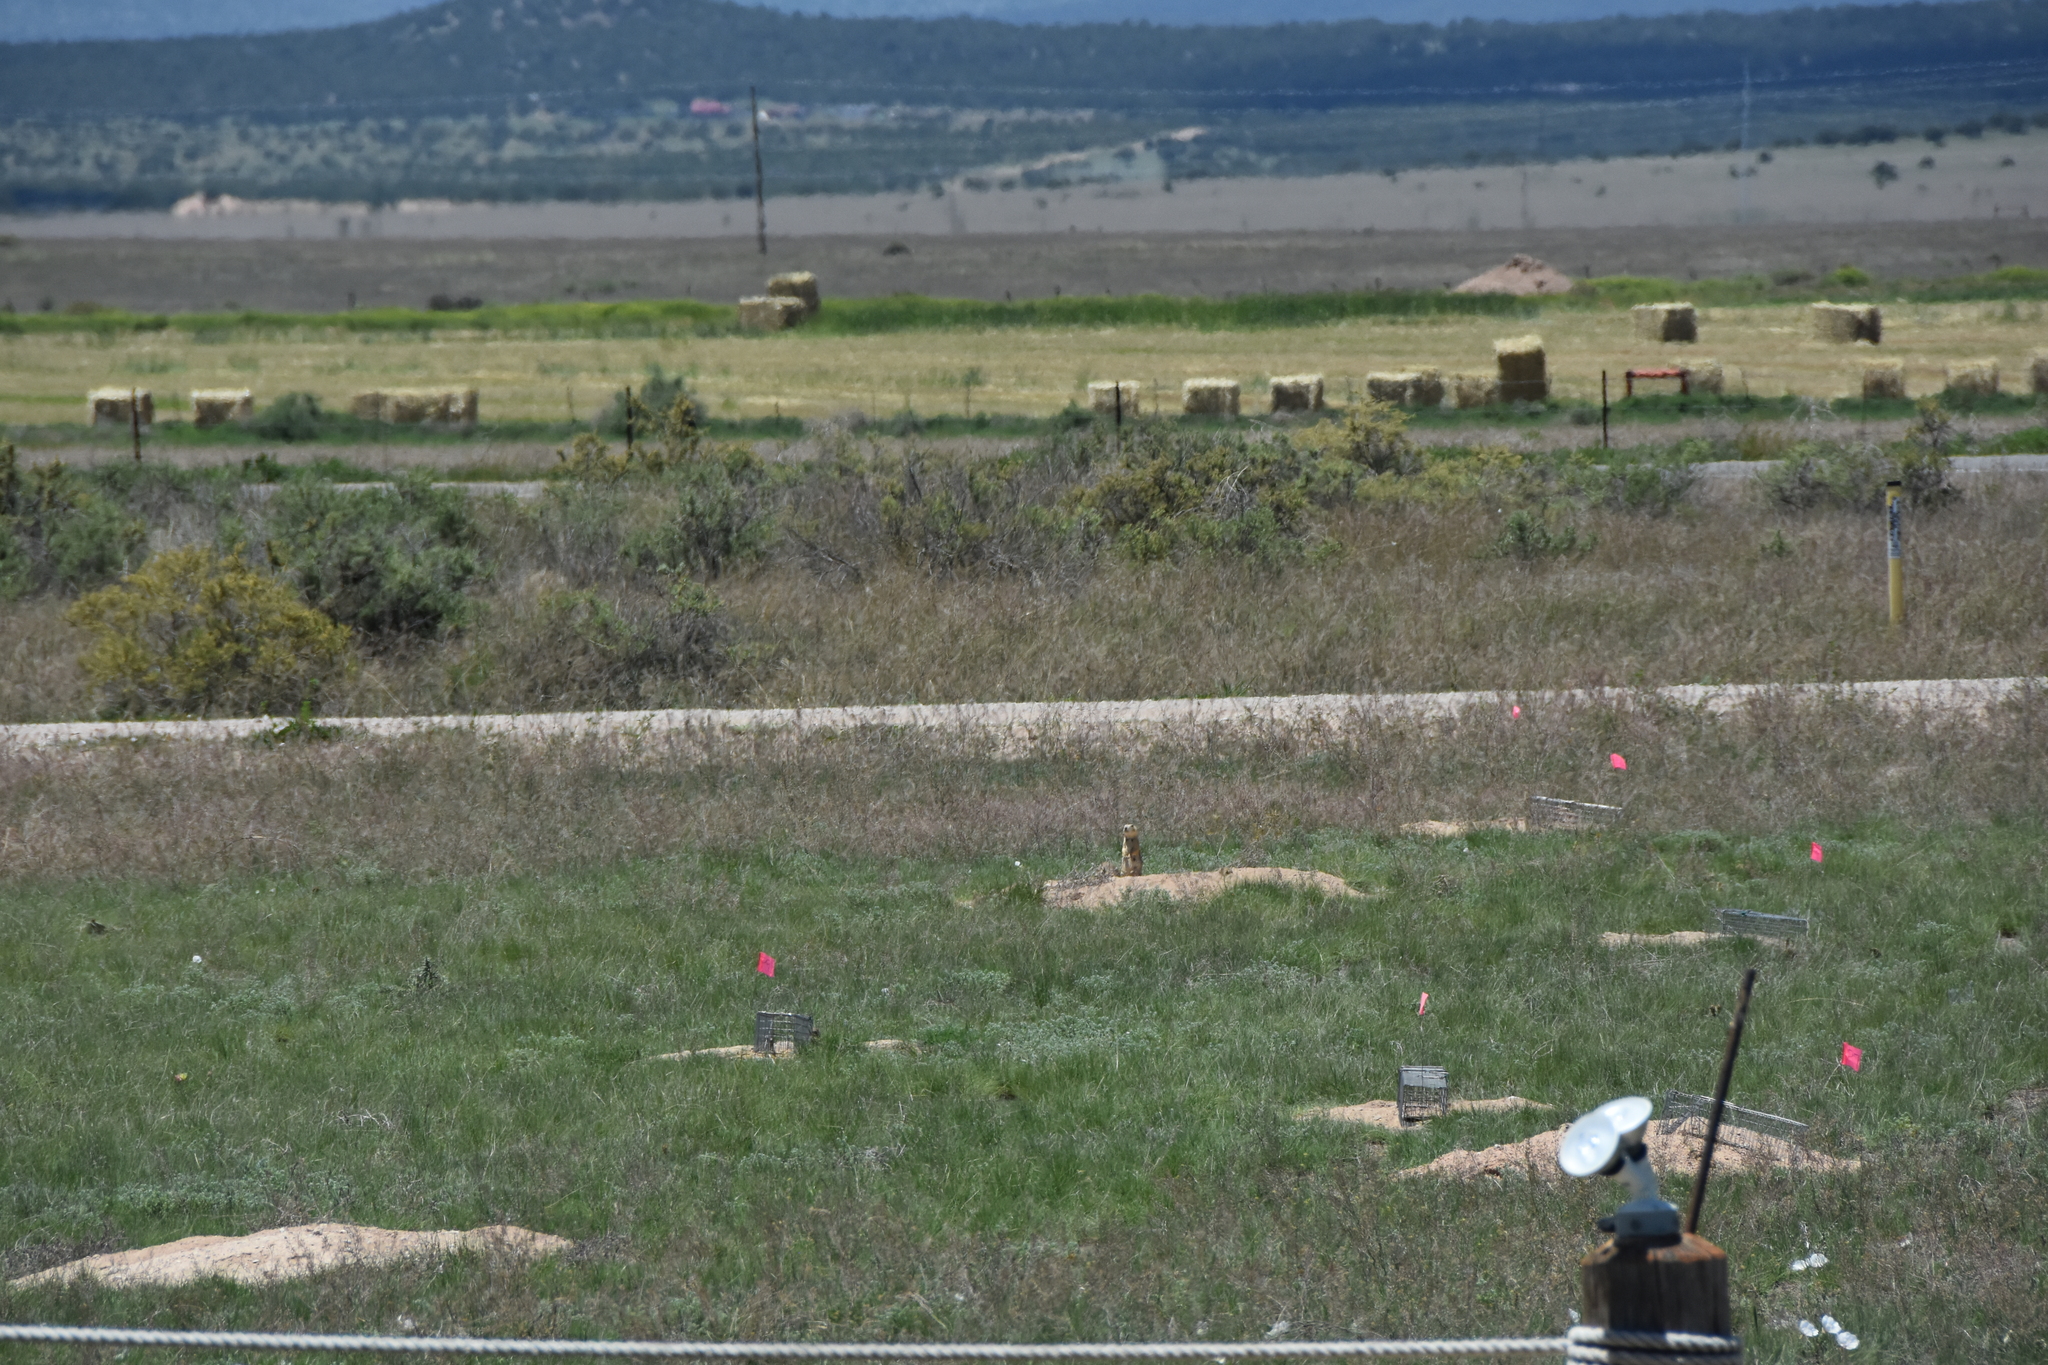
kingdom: Animalia
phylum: Chordata
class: Mammalia
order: Rodentia
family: Sciuridae
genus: Cynomys
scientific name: Cynomys gunnisoni
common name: Gunnison's prairie dog
